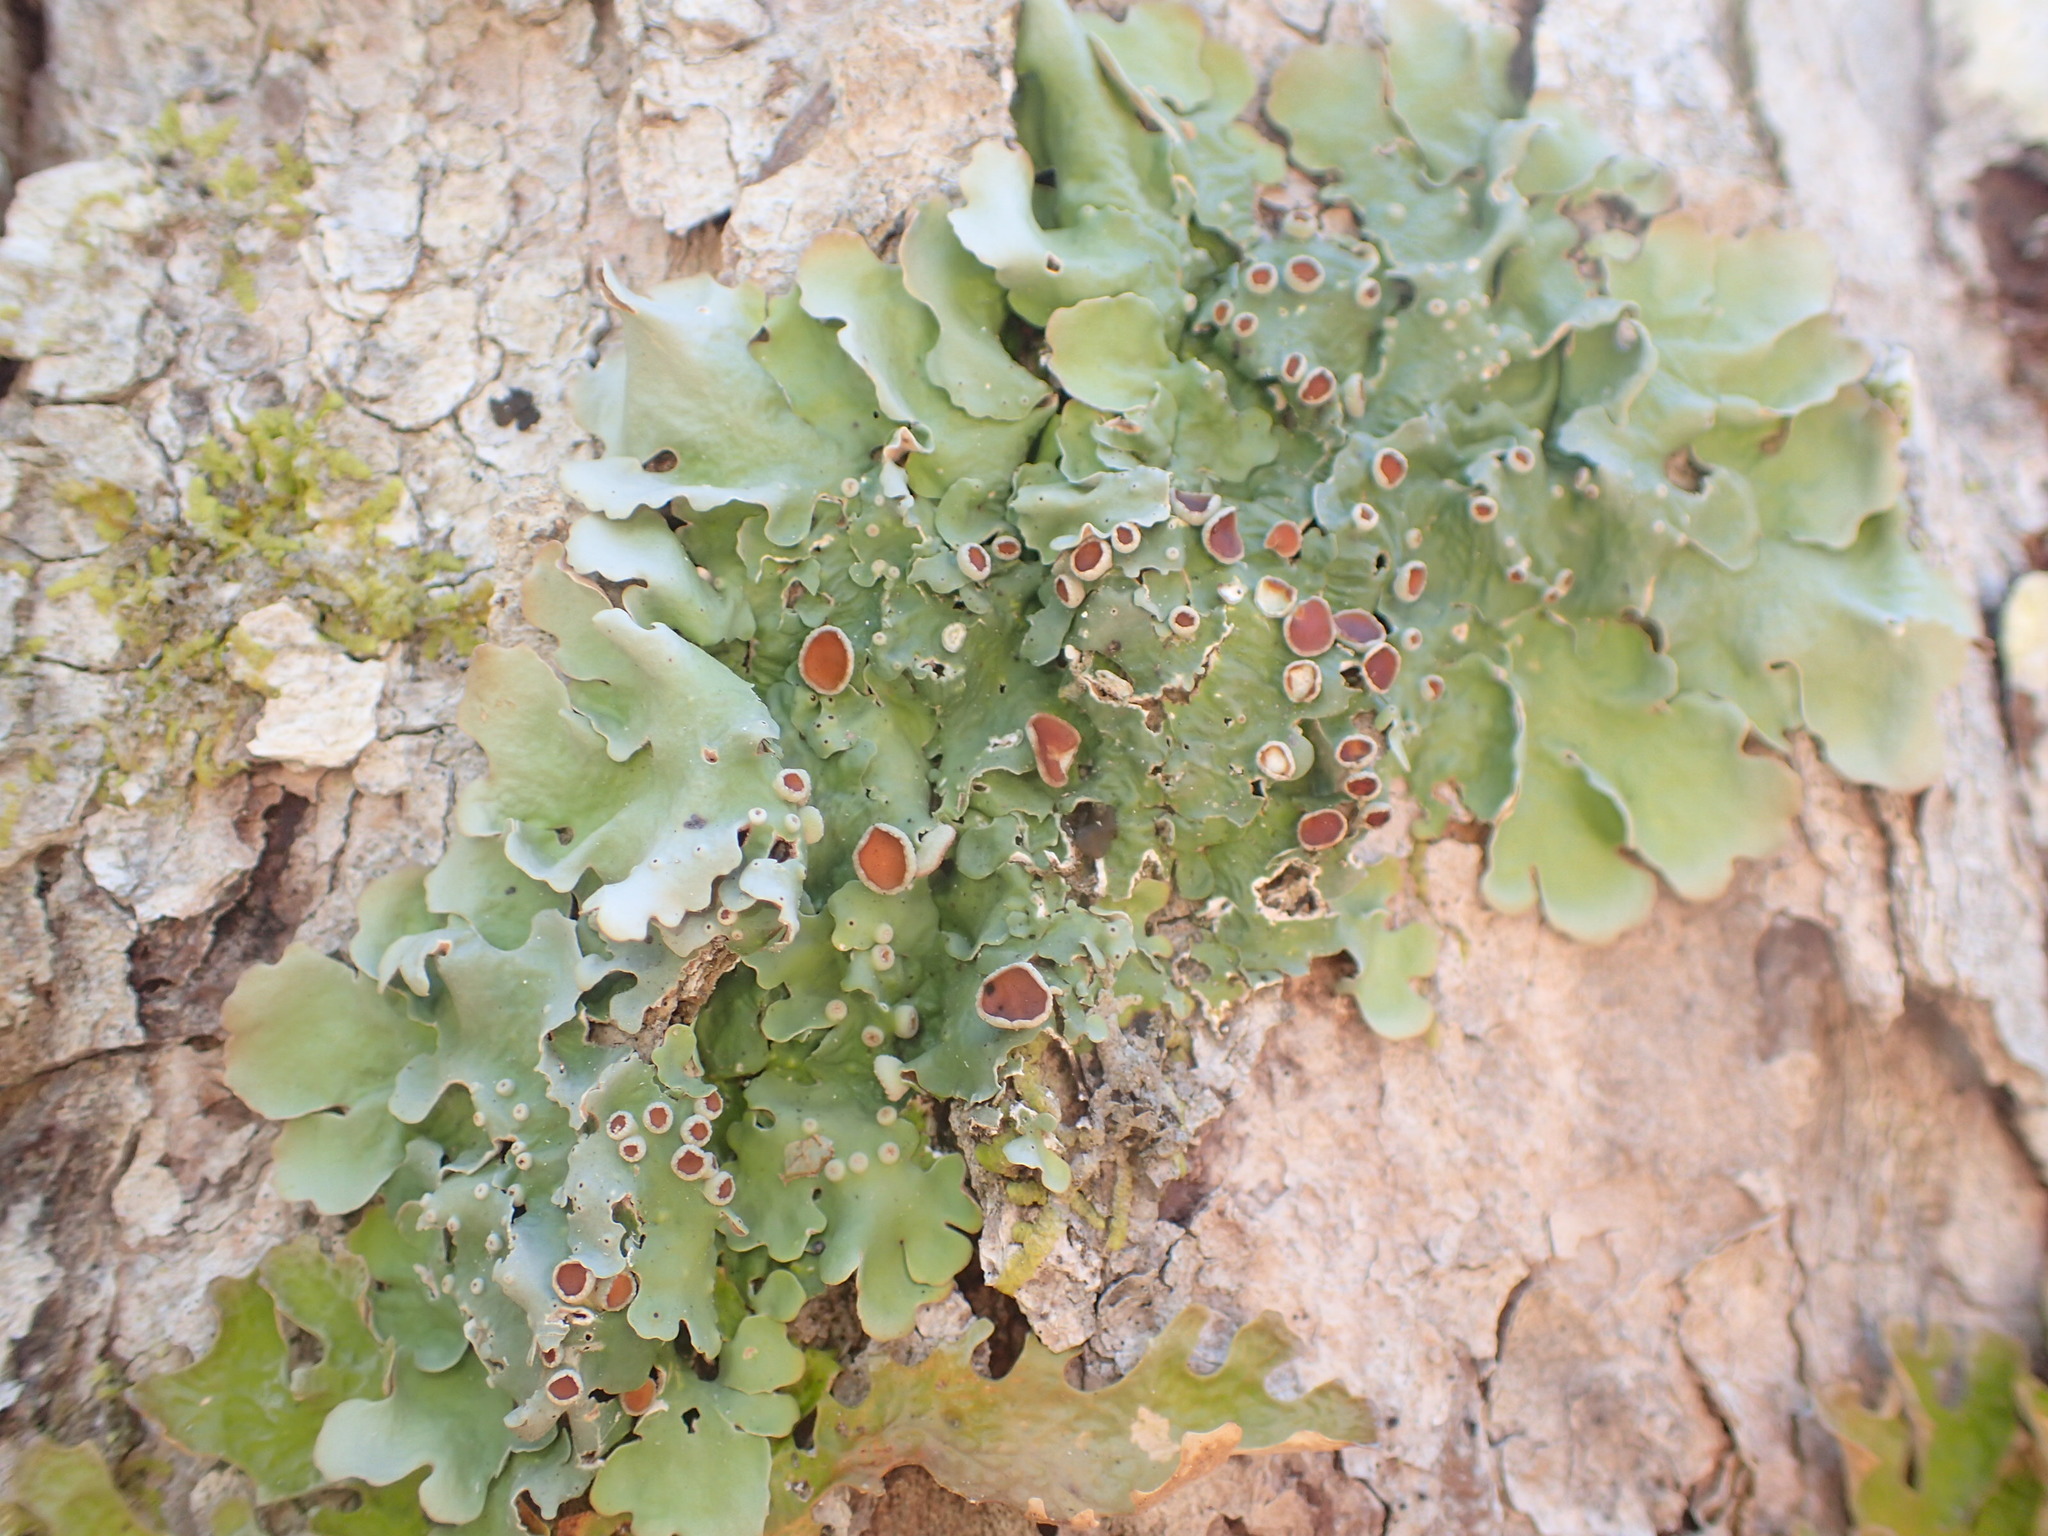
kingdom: Fungi
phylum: Ascomycota
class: Lecanoromycetes
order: Peltigerales
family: Lobariaceae
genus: Ricasolia
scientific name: Ricasolia quercizans
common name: Smooth lungwort
